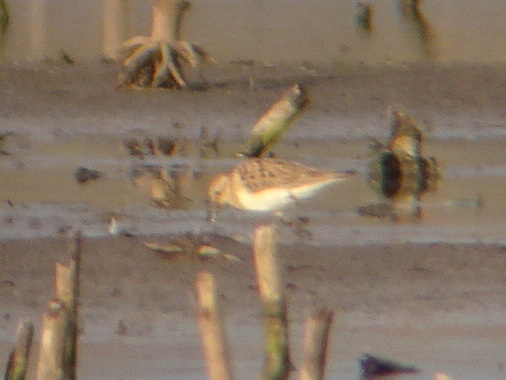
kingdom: Animalia
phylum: Chordata
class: Aves
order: Charadriiformes
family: Scolopacidae
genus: Calidris
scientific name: Calidris bairdii
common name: Baird's sandpiper
